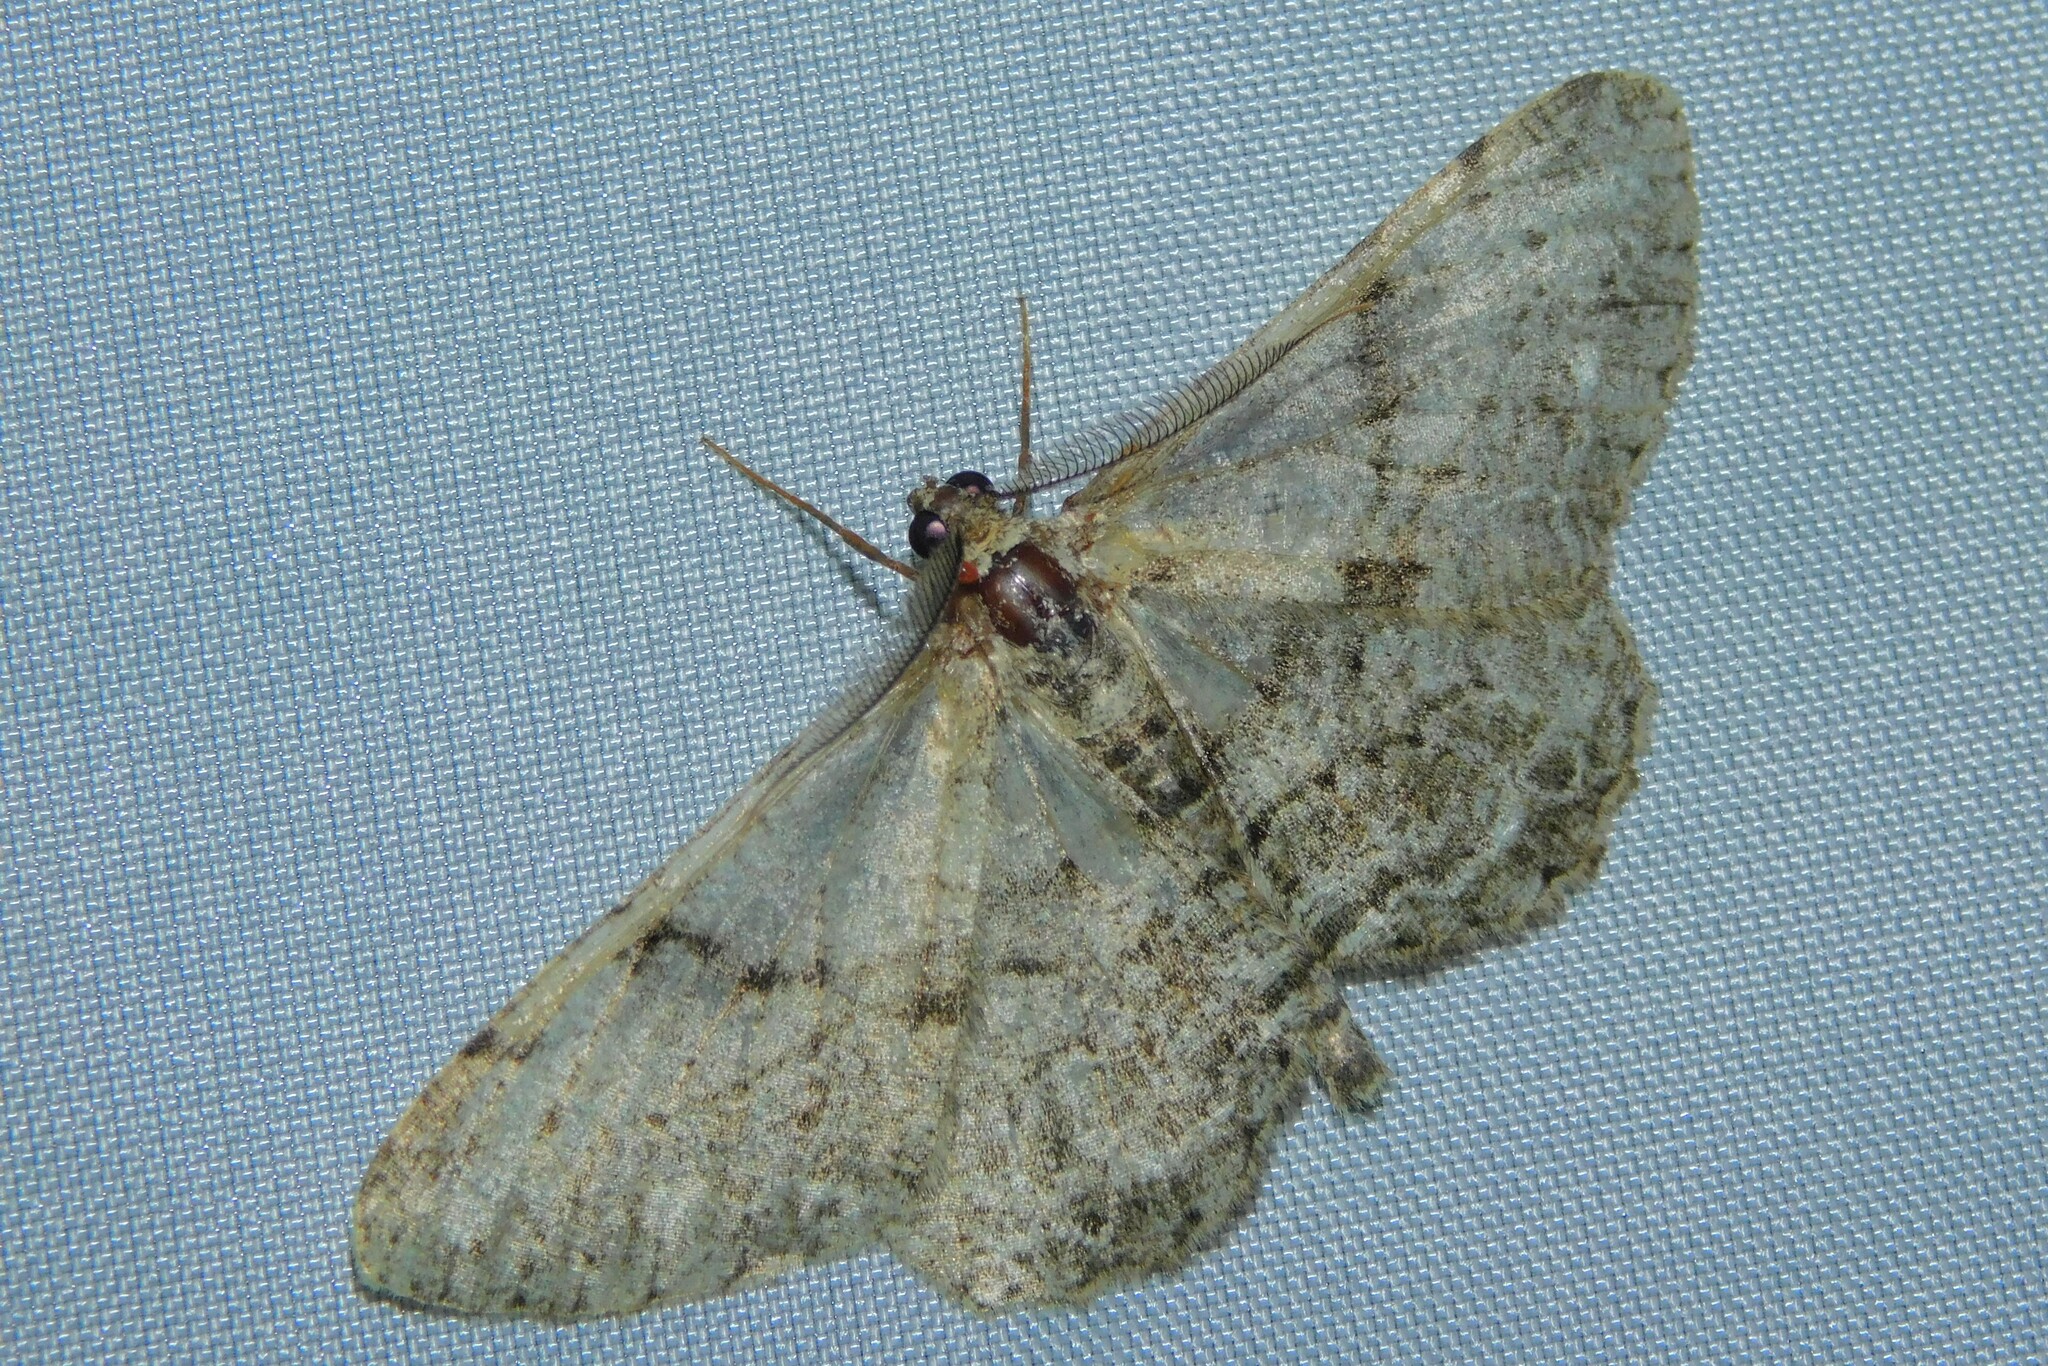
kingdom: Animalia
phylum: Arthropoda
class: Insecta
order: Lepidoptera
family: Geometridae
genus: Peribatodes
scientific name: Peribatodes rhomboidaria
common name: Willow beauty
